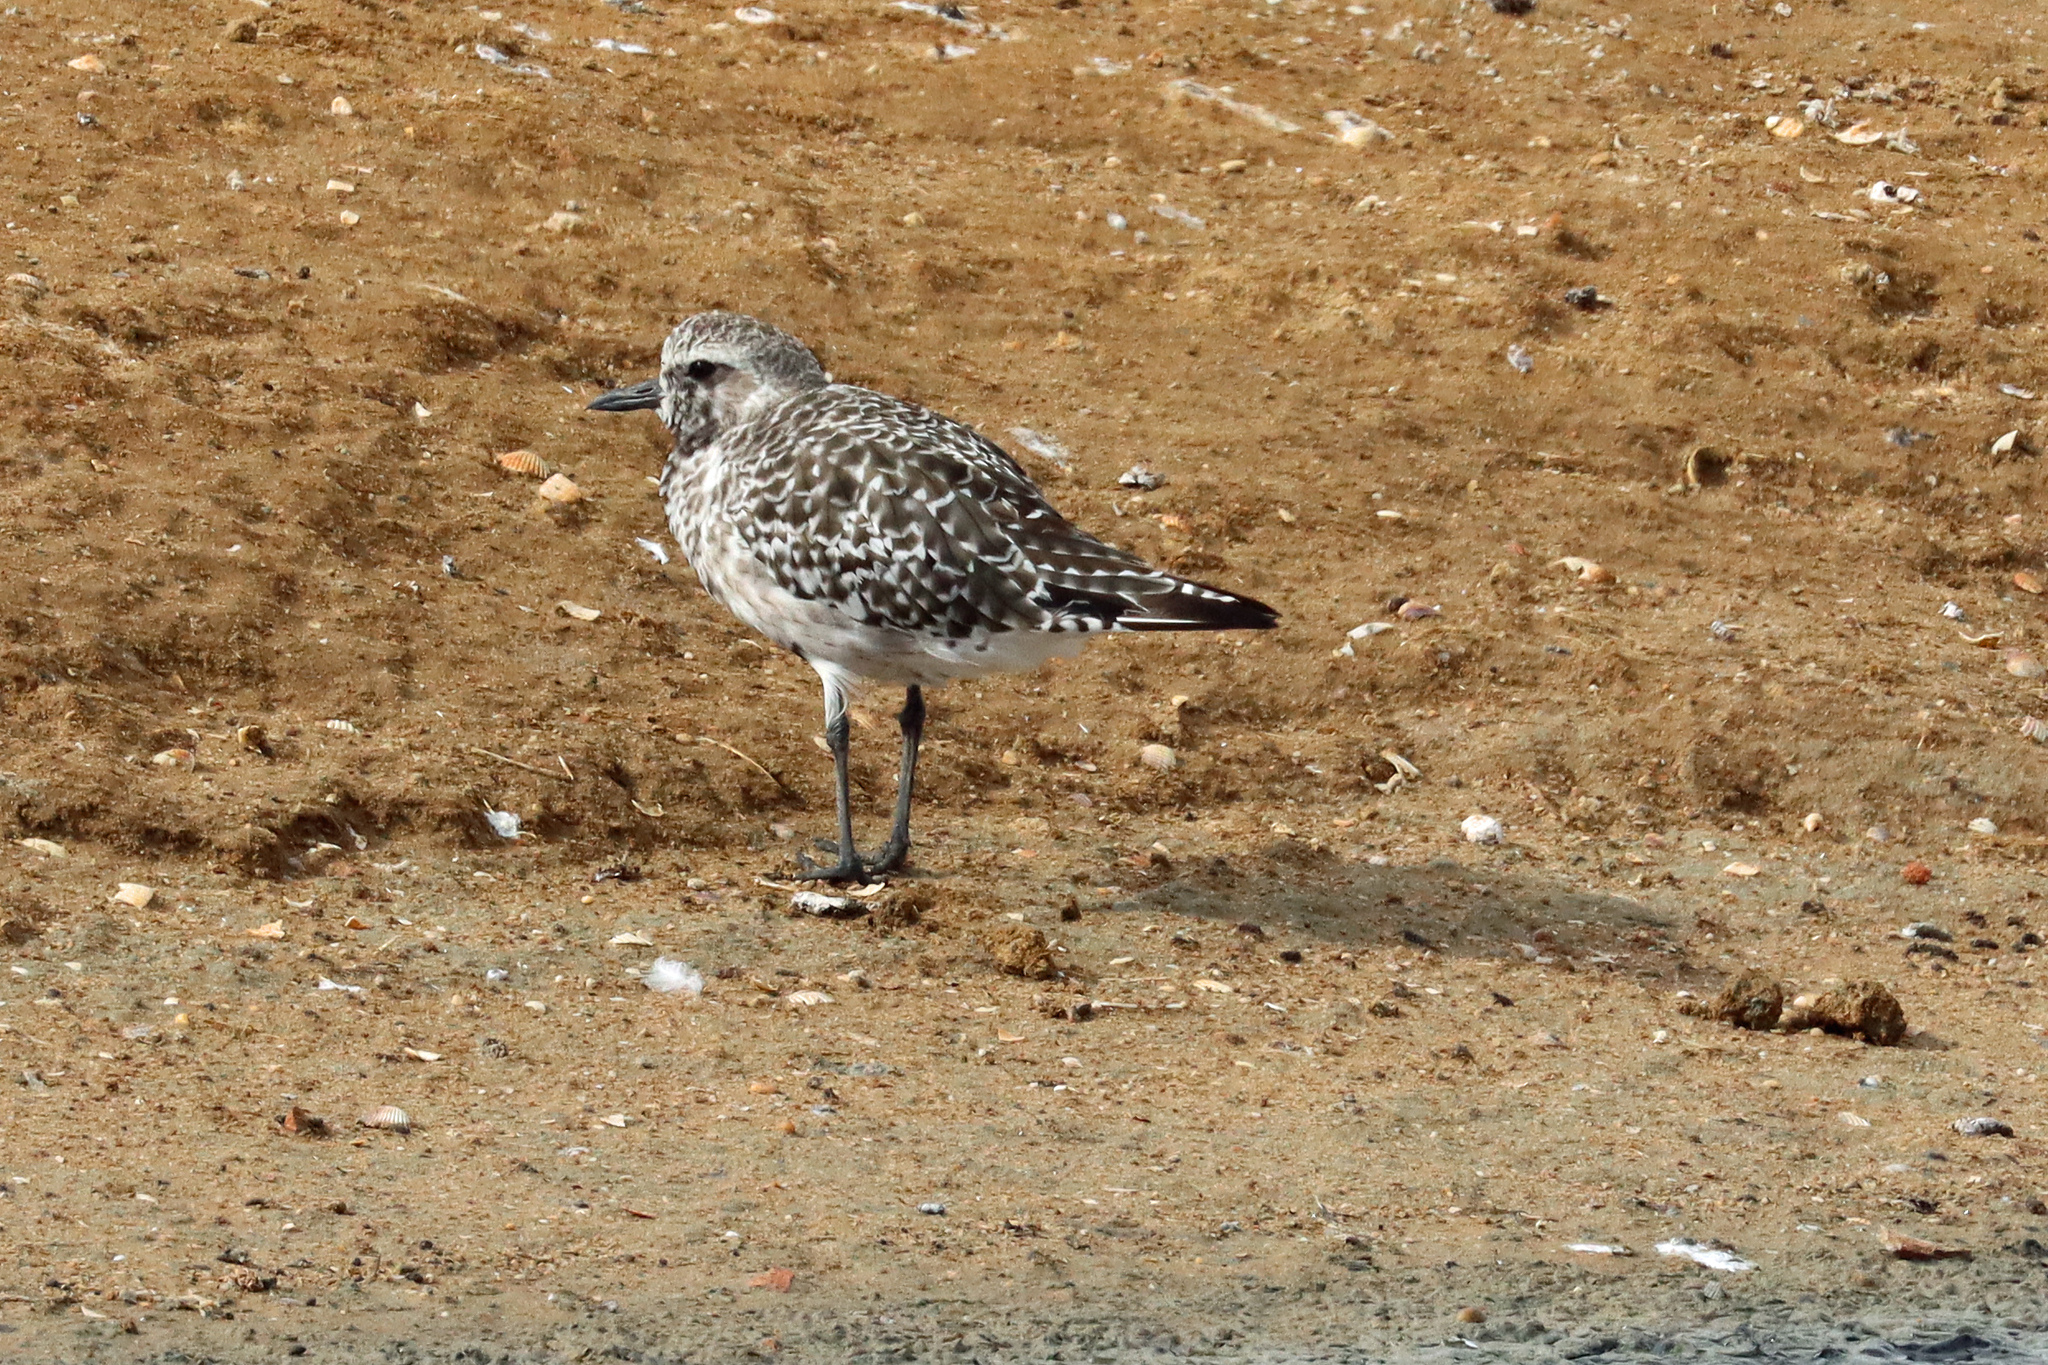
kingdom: Animalia
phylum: Chordata
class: Aves
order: Charadriiformes
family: Charadriidae
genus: Pluvialis
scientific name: Pluvialis squatarola
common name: Grey plover
